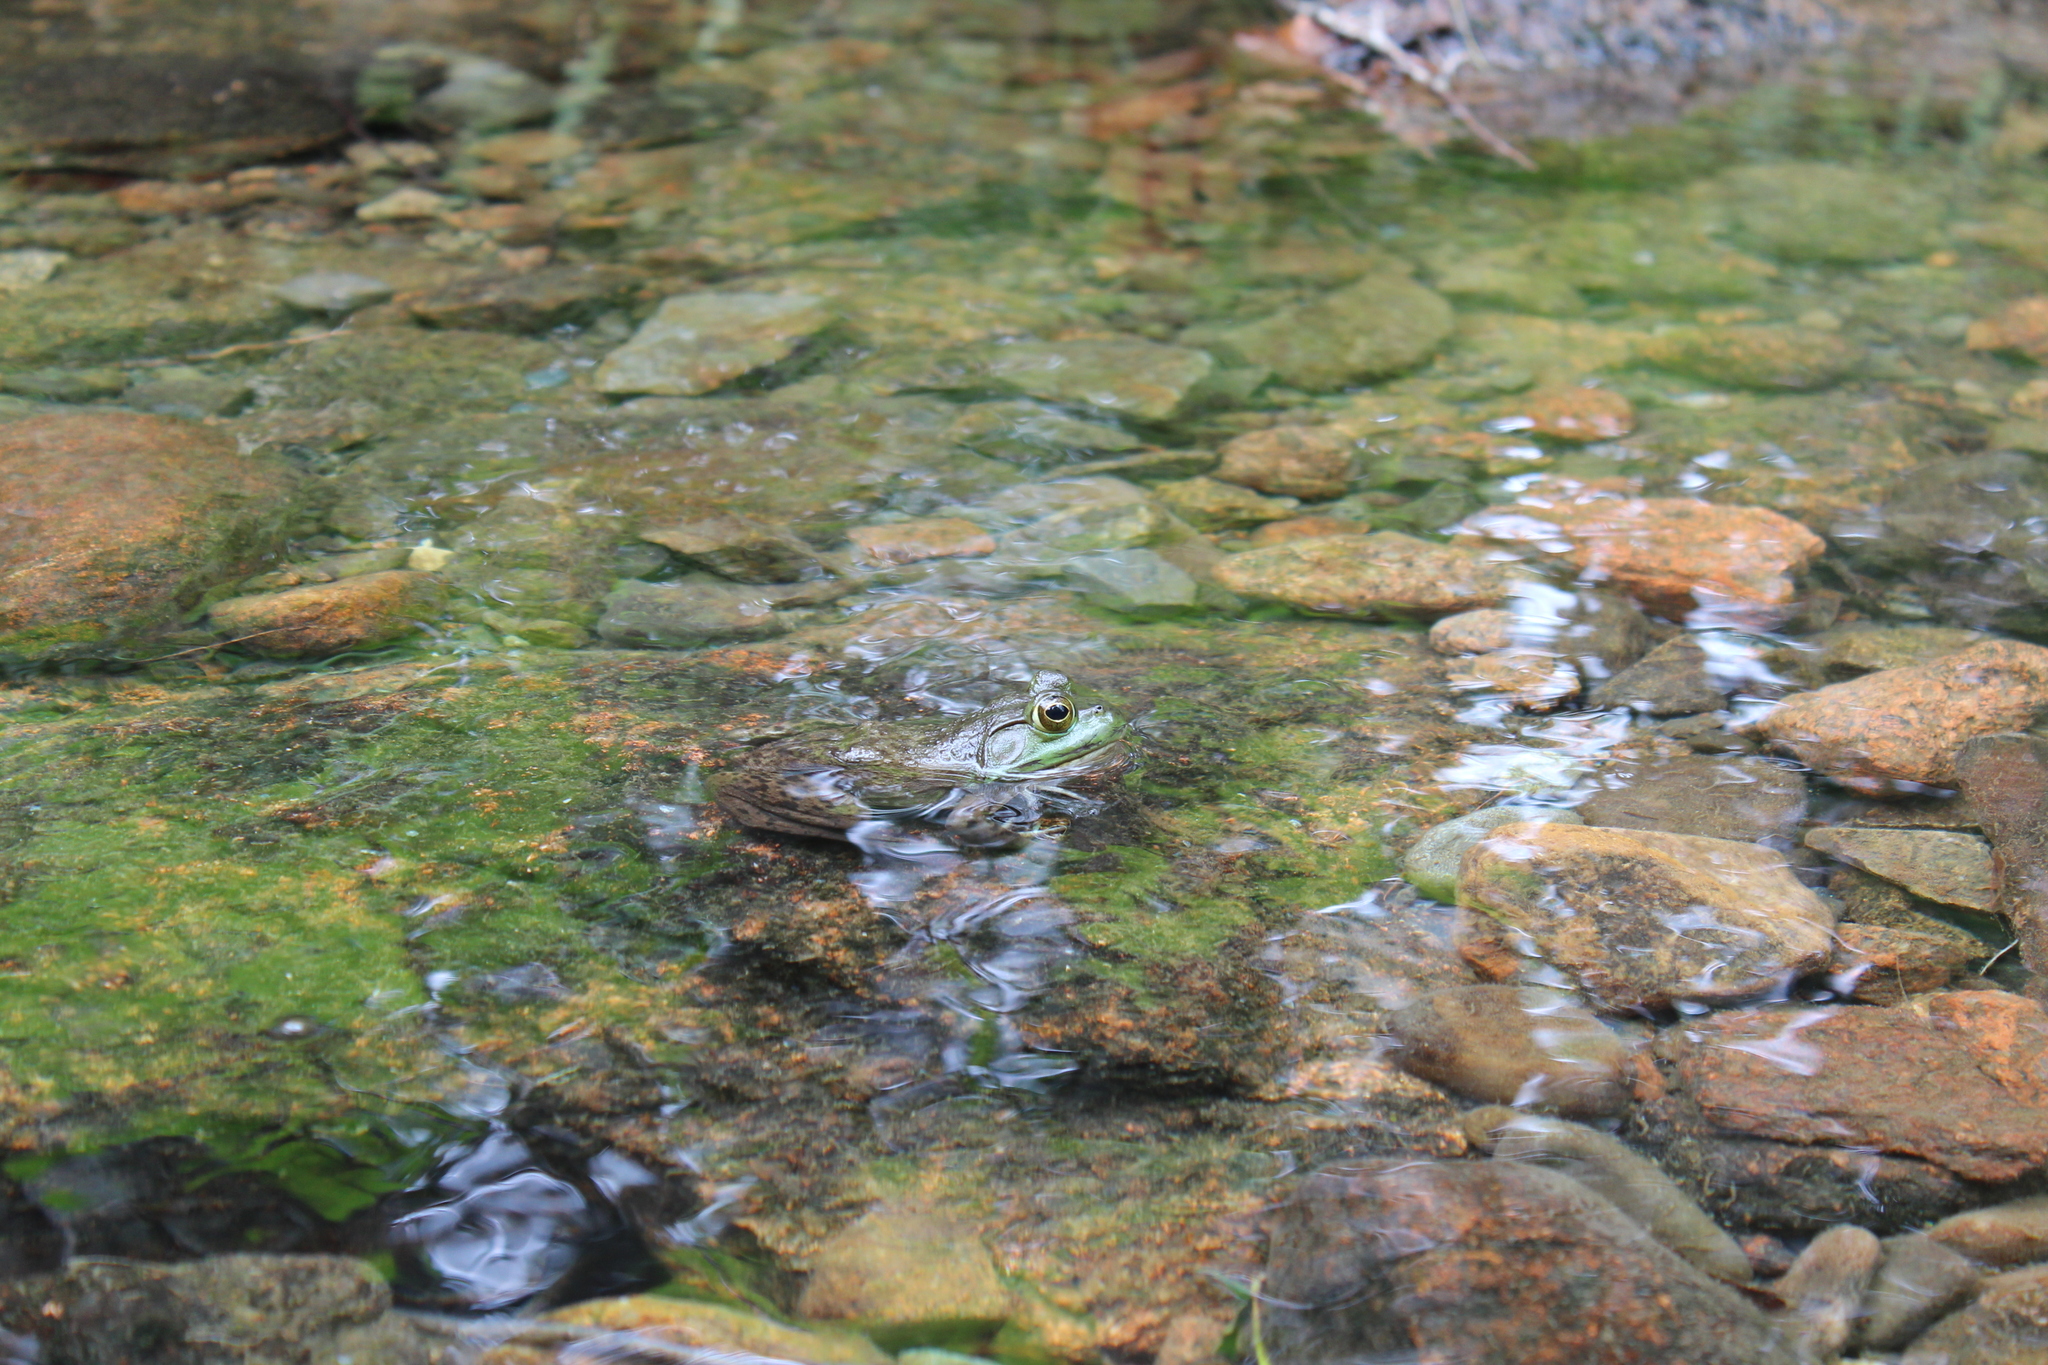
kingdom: Animalia
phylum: Chordata
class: Amphibia
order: Anura
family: Ranidae
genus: Lithobates
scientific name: Lithobates catesbeianus
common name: American bullfrog
